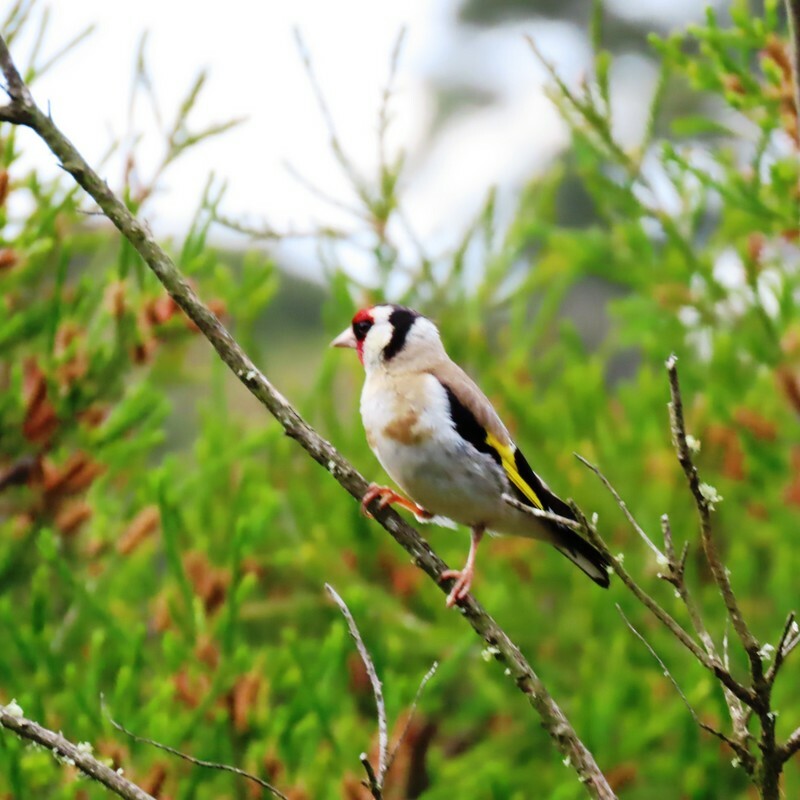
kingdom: Animalia
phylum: Chordata
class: Aves
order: Passeriformes
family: Fringillidae
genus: Carduelis
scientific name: Carduelis carduelis
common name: European goldfinch
